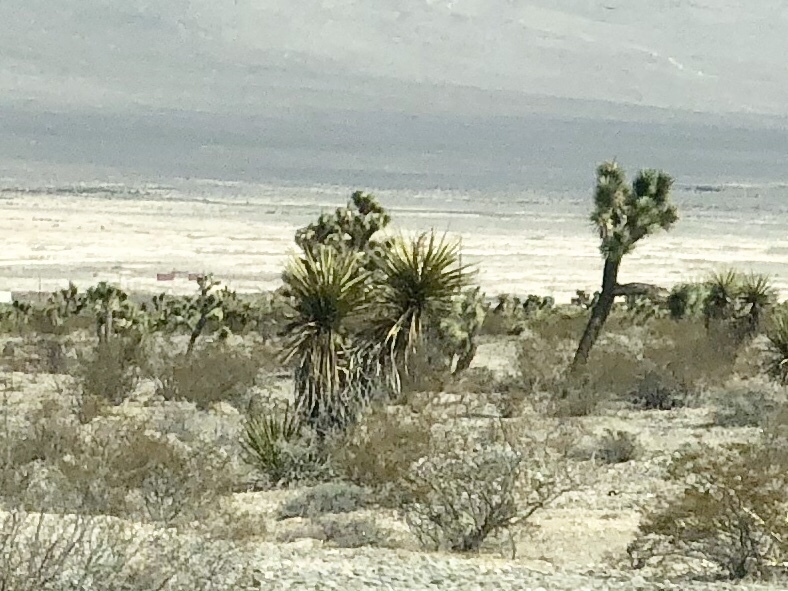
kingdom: Plantae
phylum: Tracheophyta
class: Liliopsida
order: Asparagales
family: Asparagaceae
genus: Yucca
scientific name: Yucca schidigera
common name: Mojave yucca
